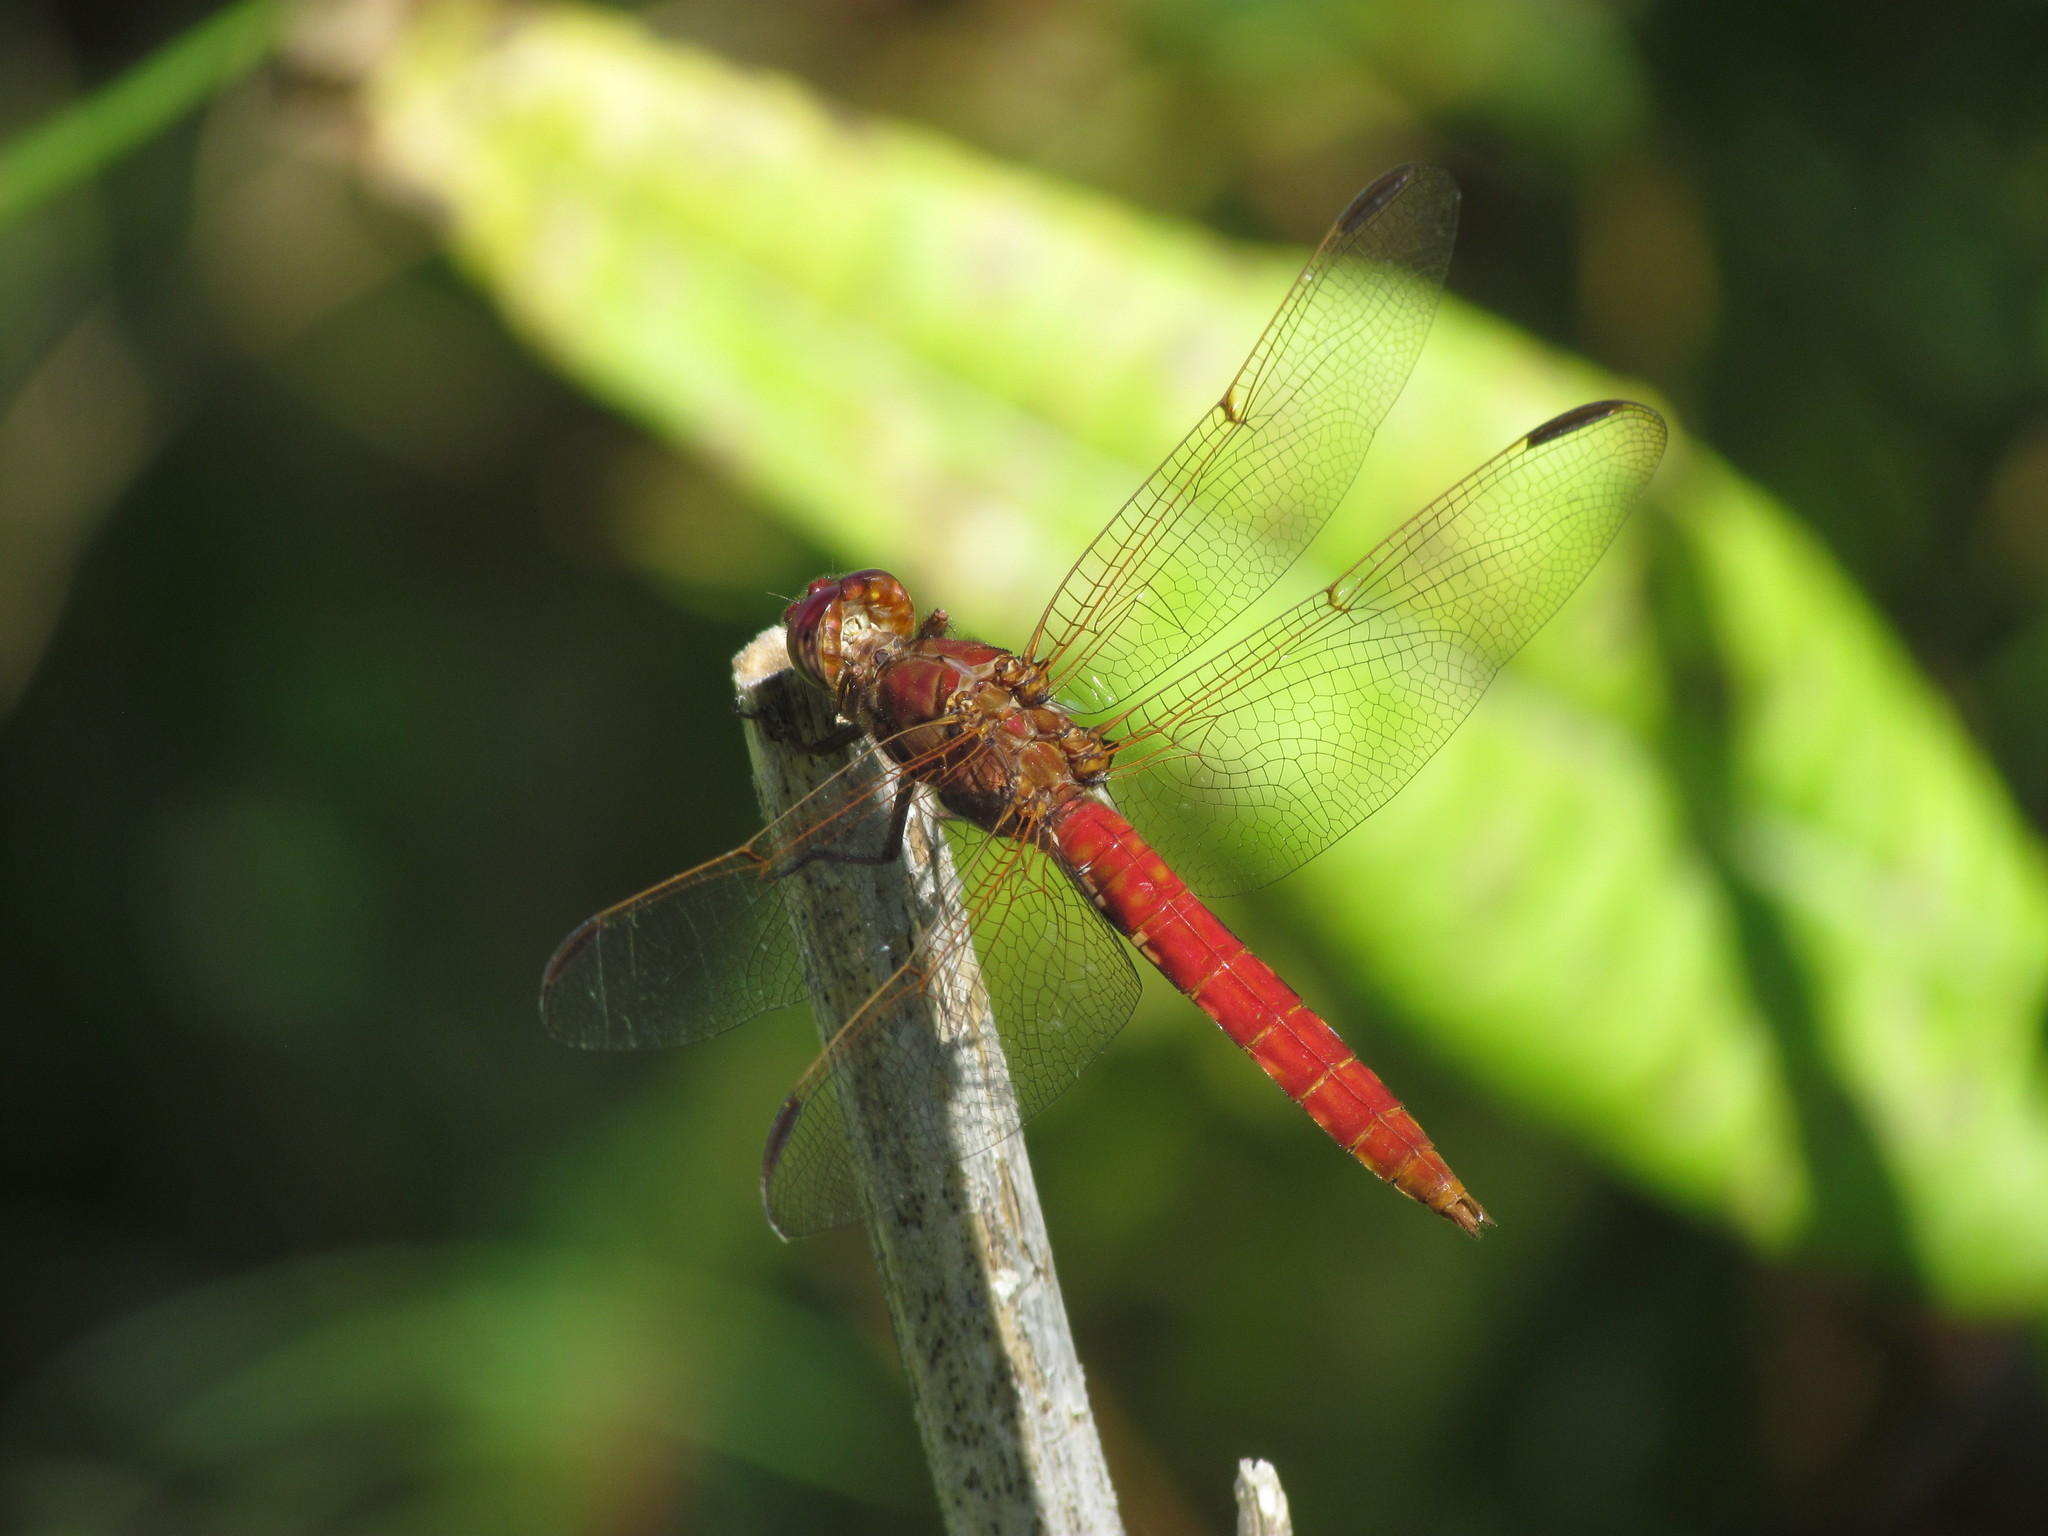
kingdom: Animalia
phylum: Arthropoda
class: Insecta
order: Odonata
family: Libellulidae
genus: Orthemis
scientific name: Orthemis nodiplaga
